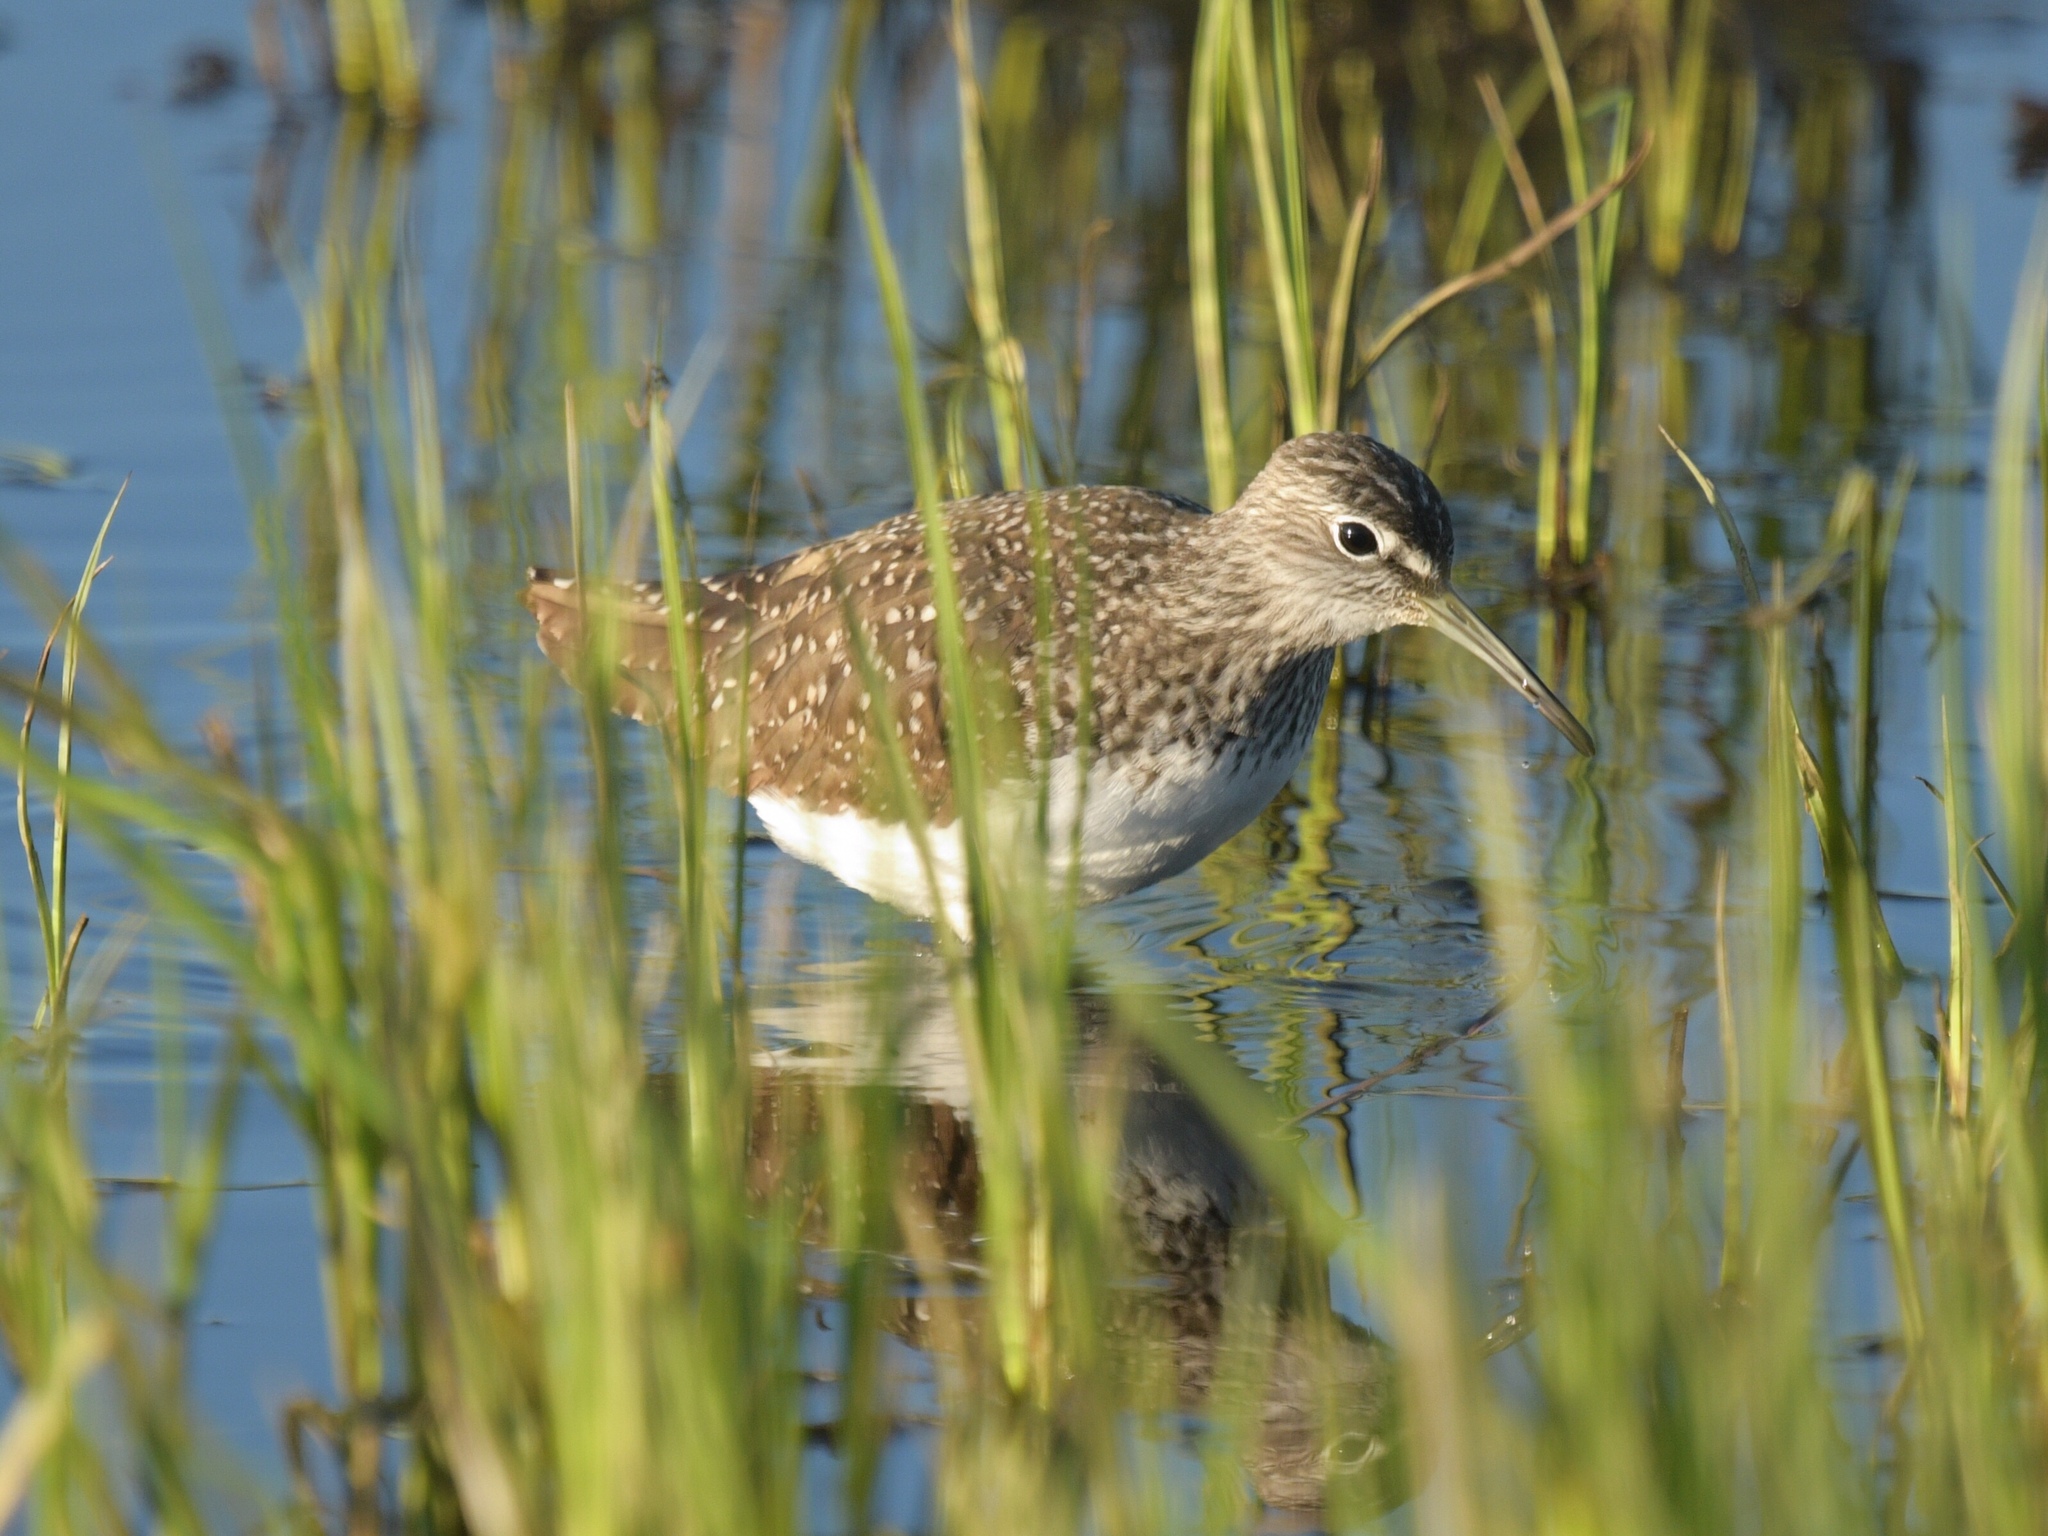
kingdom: Animalia
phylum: Chordata
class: Aves
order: Charadriiformes
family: Scolopacidae
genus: Tringa
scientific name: Tringa ochropus
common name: Green sandpiper
